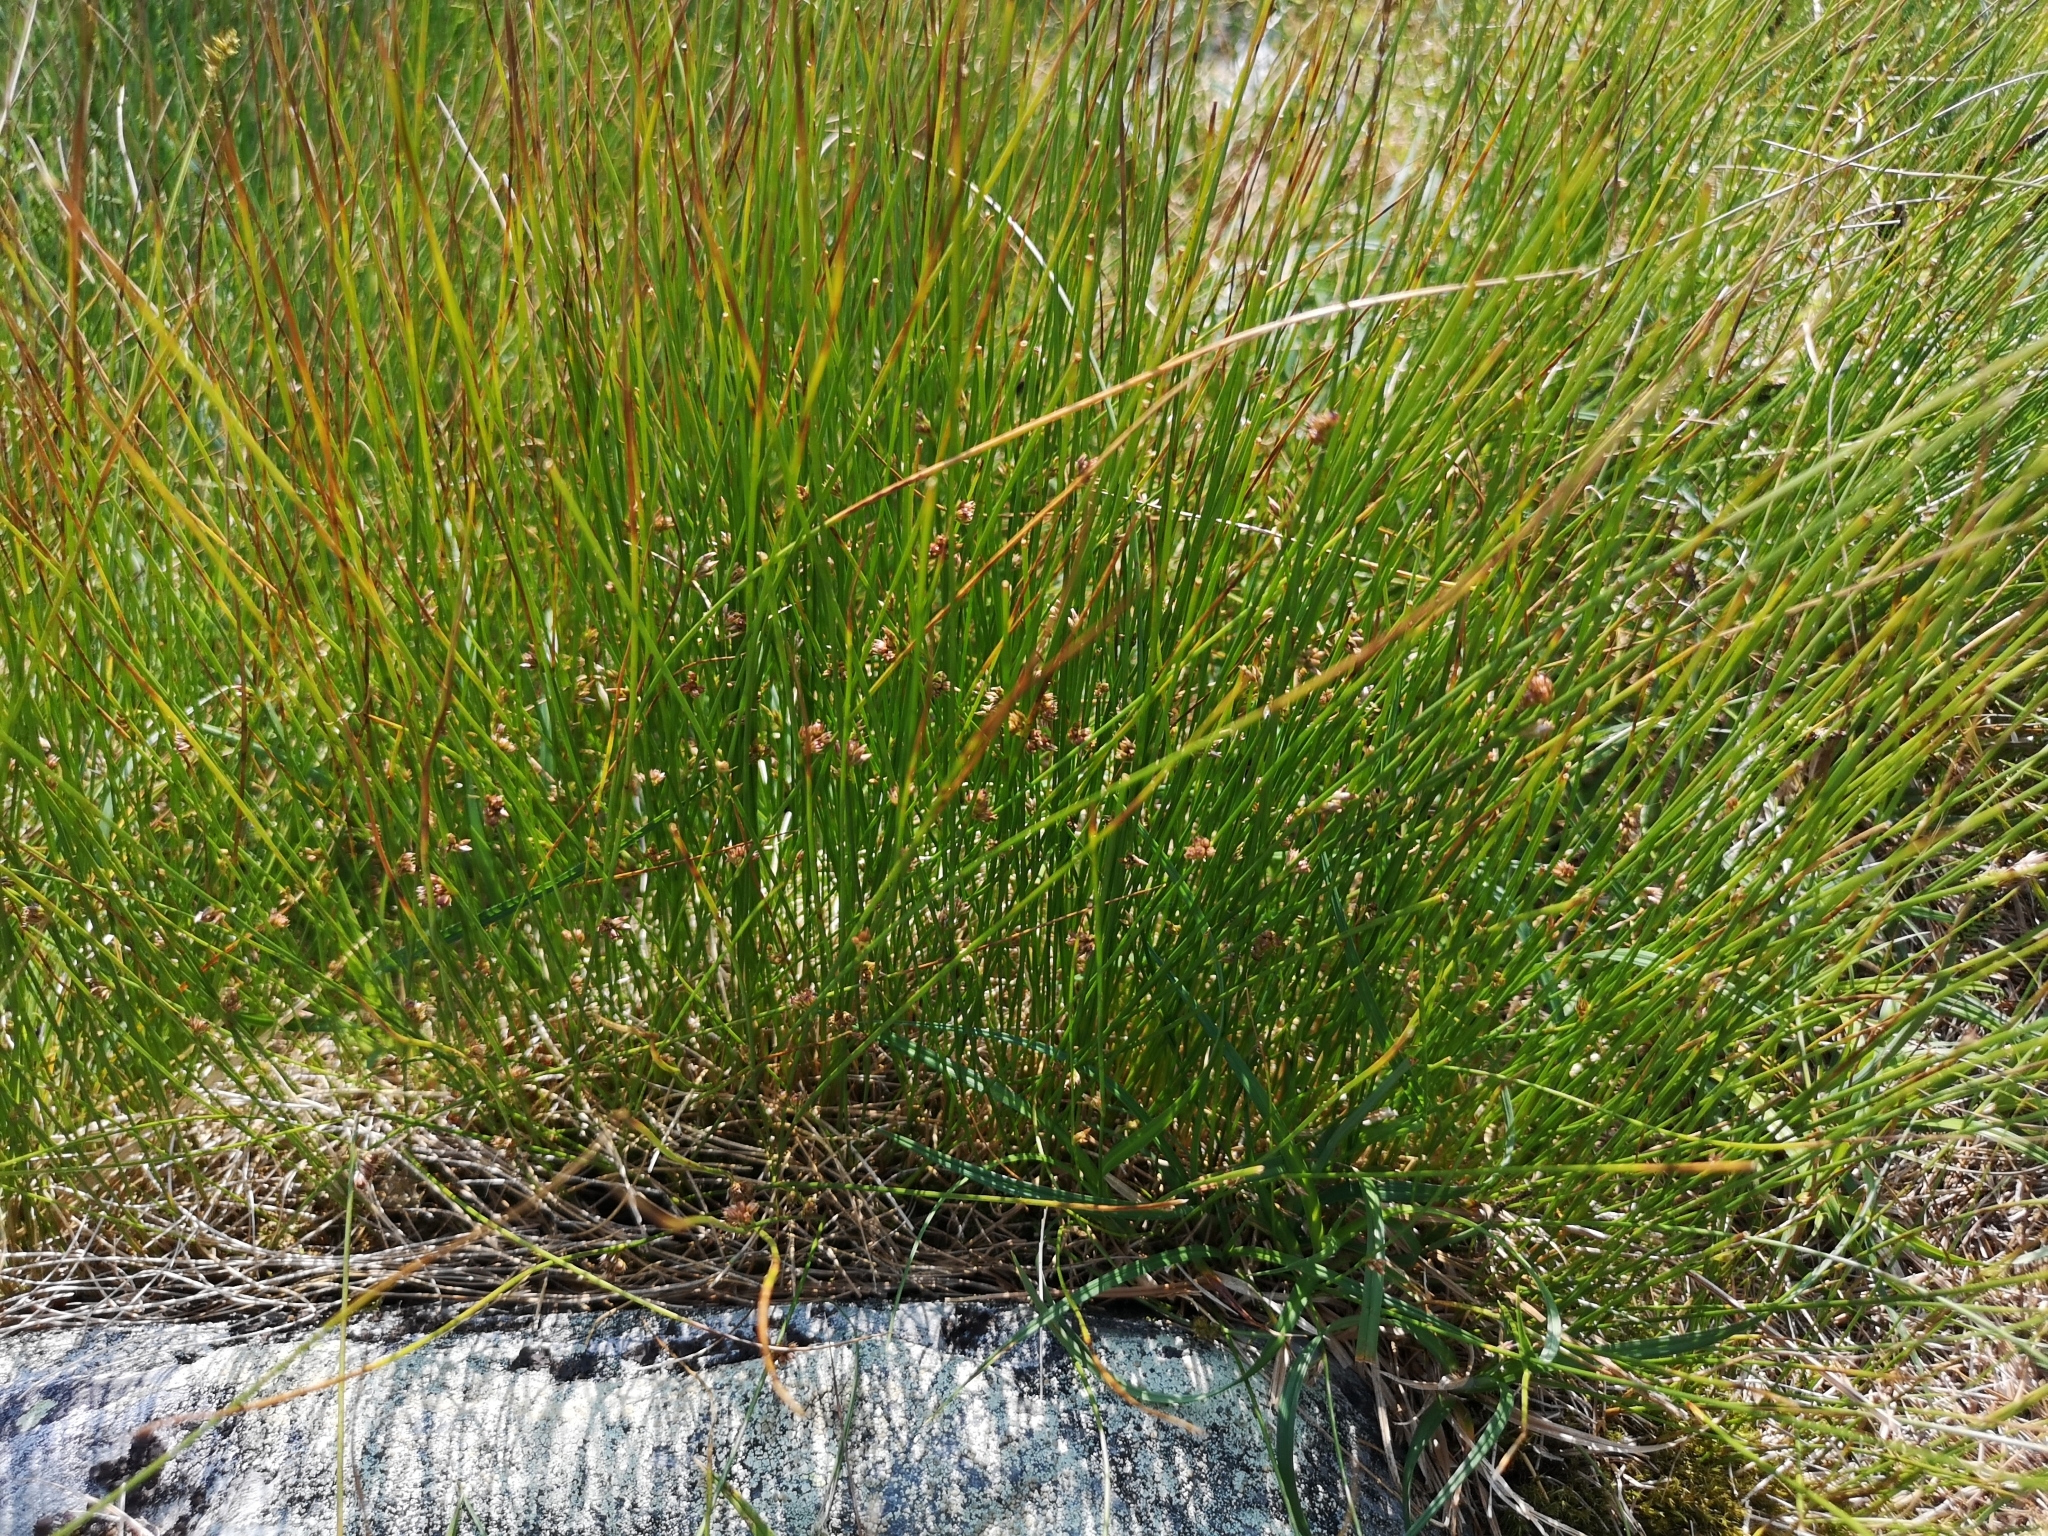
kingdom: Plantae
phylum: Tracheophyta
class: Liliopsida
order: Poales
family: Juncaceae
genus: Juncus
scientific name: Juncus filiformis
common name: Thread rush
